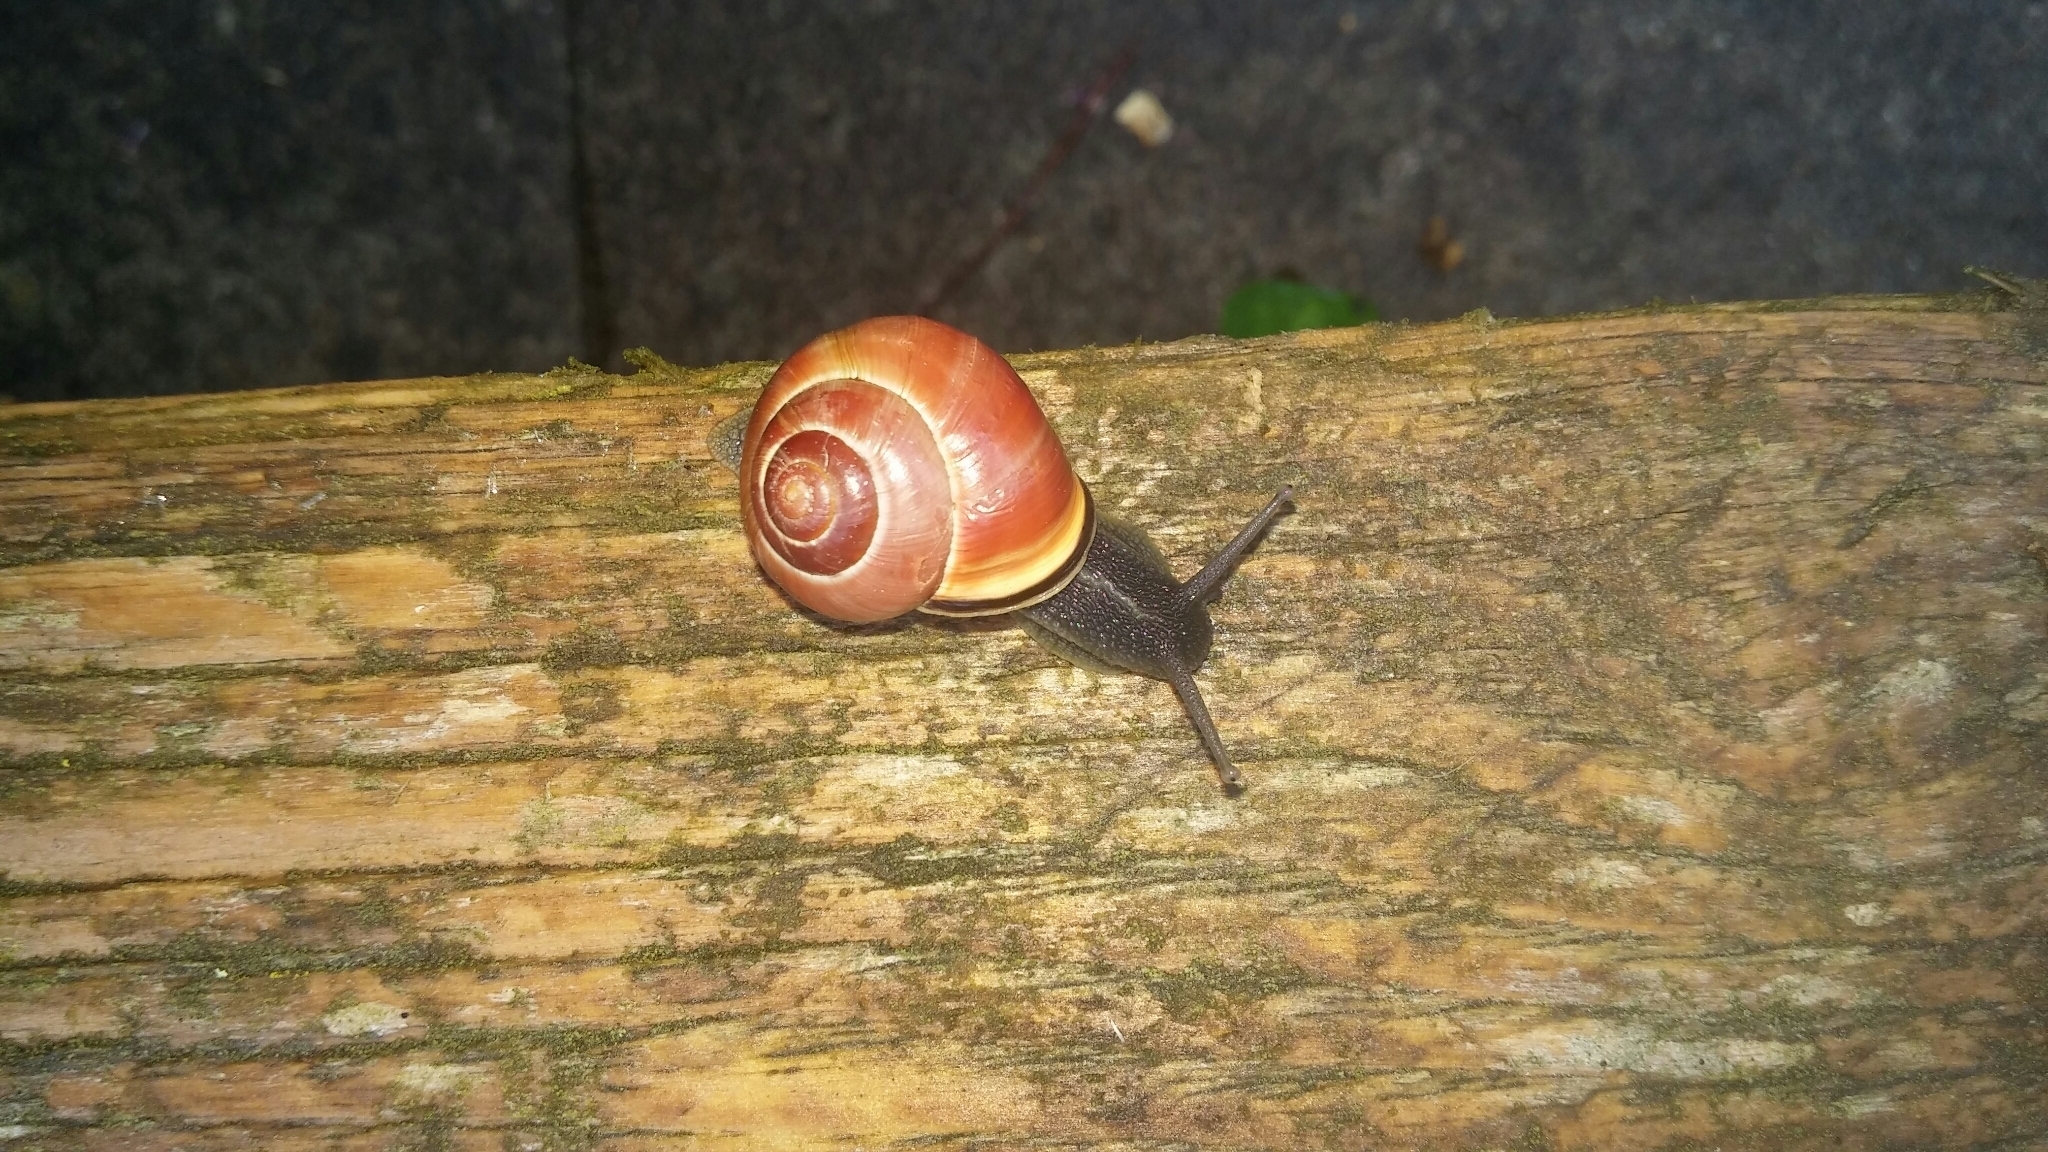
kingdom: Animalia
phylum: Mollusca
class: Gastropoda
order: Stylommatophora
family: Helicidae
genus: Cepaea
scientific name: Cepaea nemoralis
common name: Grovesnail
